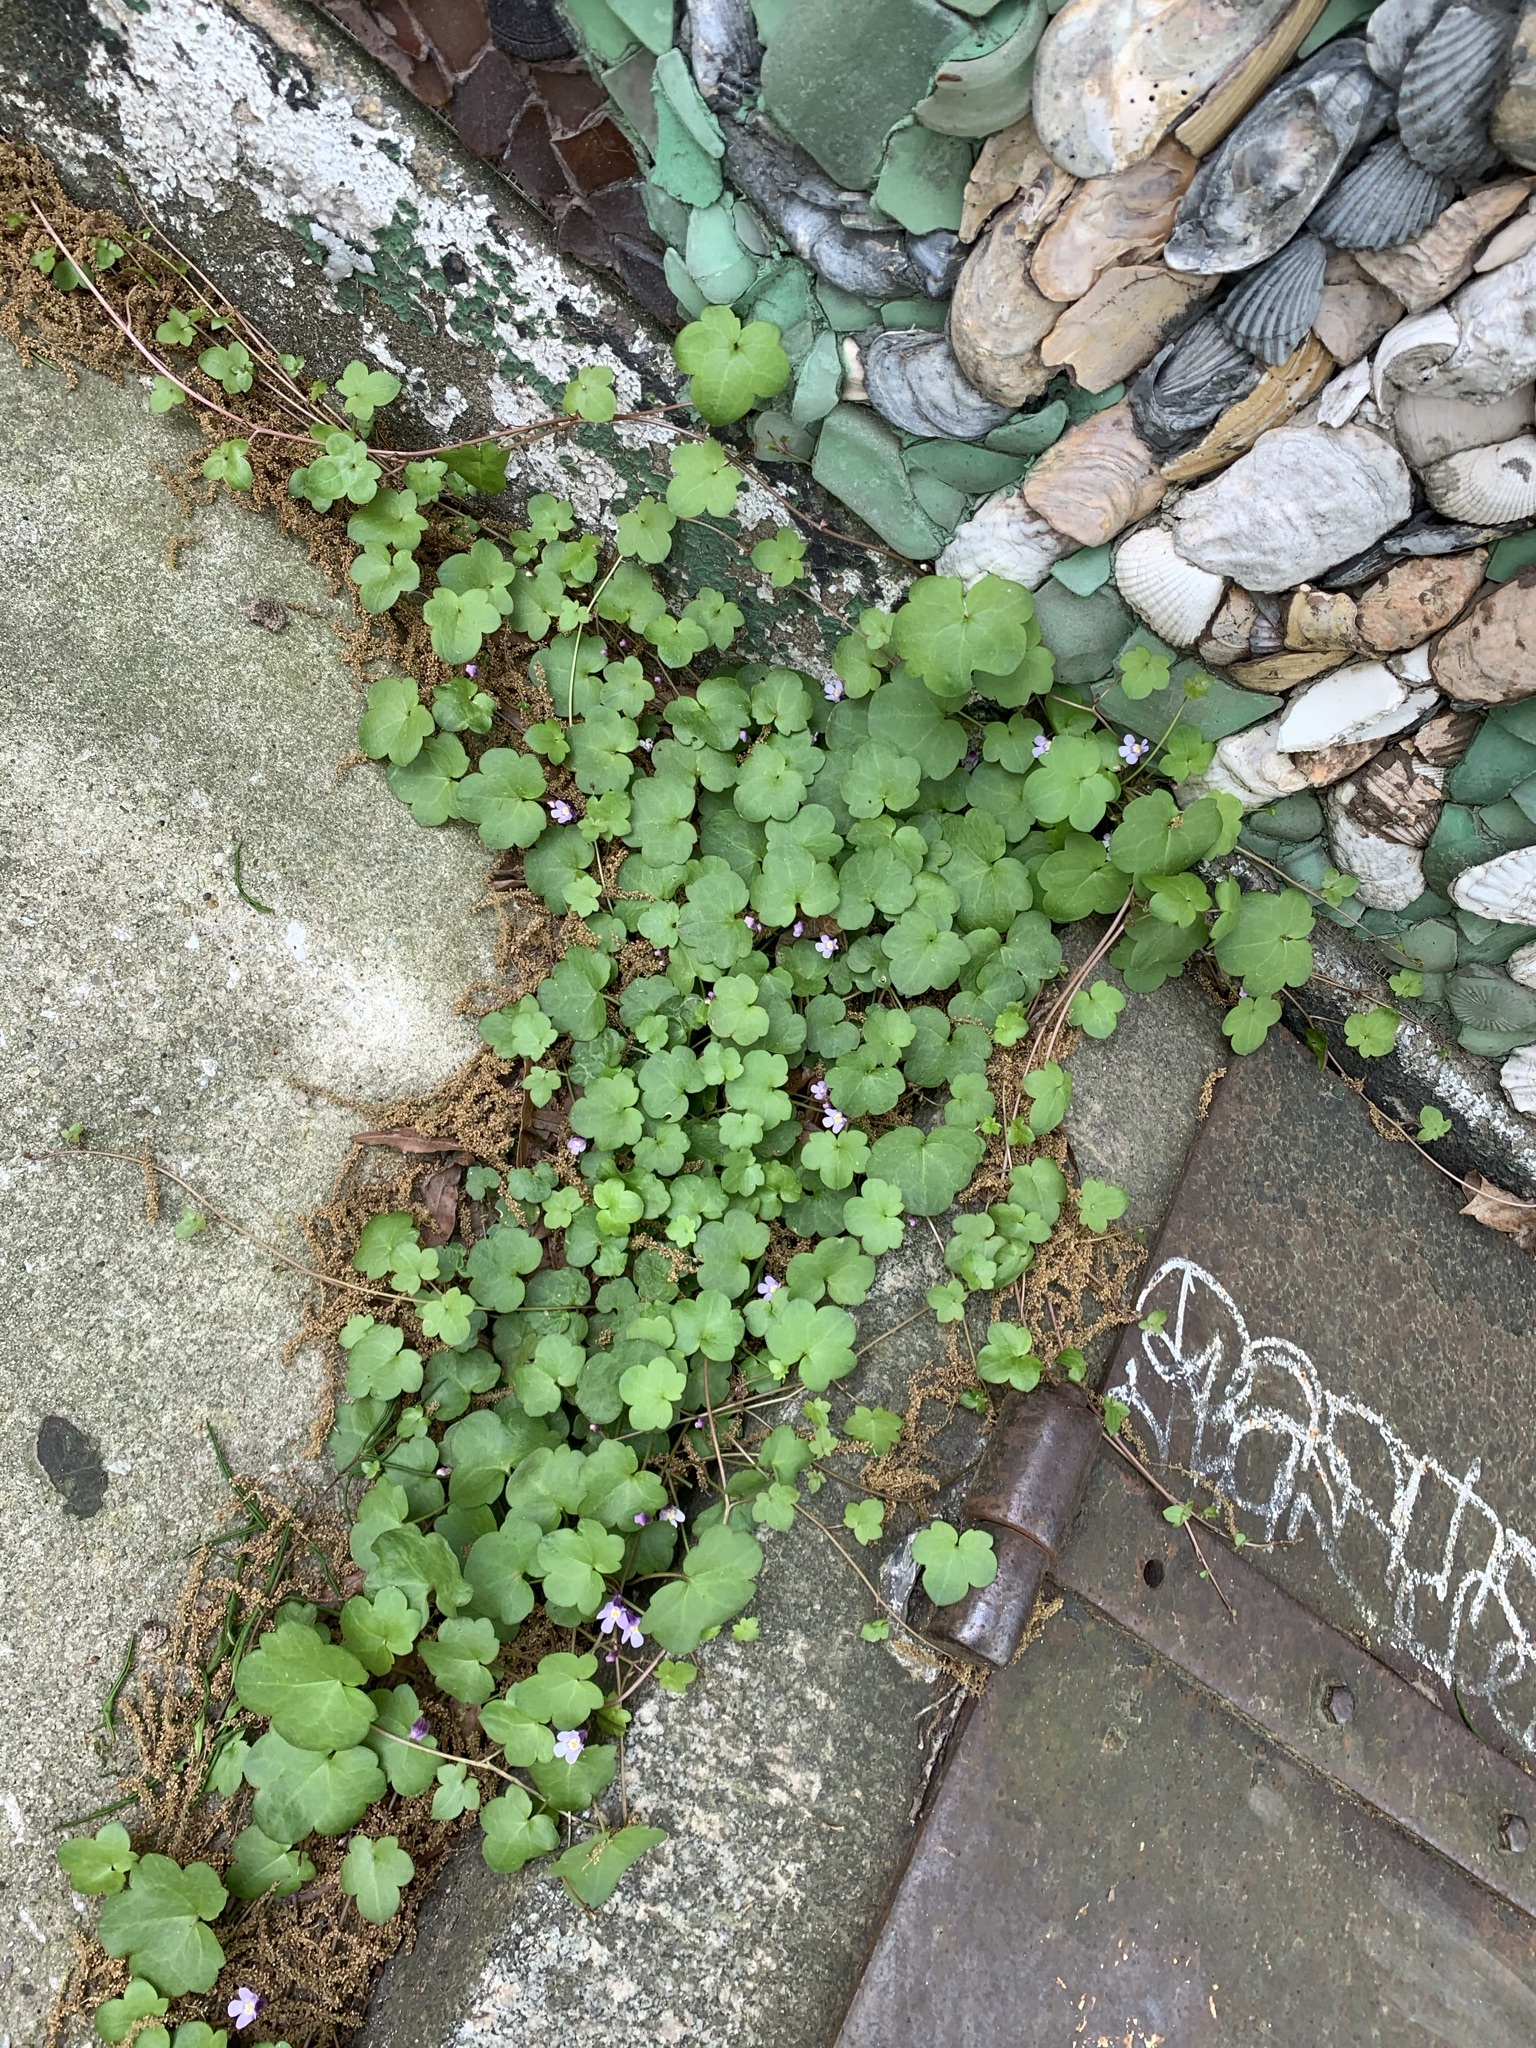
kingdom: Plantae
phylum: Tracheophyta
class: Magnoliopsida
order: Lamiales
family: Plantaginaceae
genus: Cymbalaria
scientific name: Cymbalaria muralis
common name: Ivy-leaved toadflax
